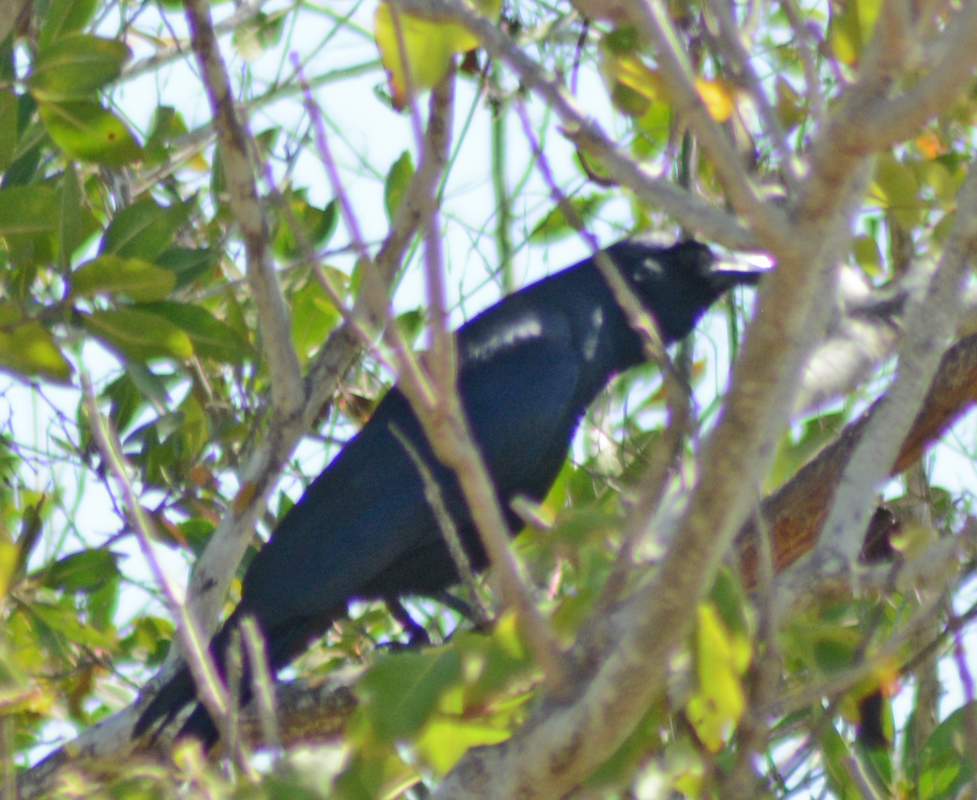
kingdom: Animalia
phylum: Chordata
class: Aves
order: Passeriformes
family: Corvidae
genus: Corvus
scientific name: Corvus sinaloae
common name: Sinaloa crow
